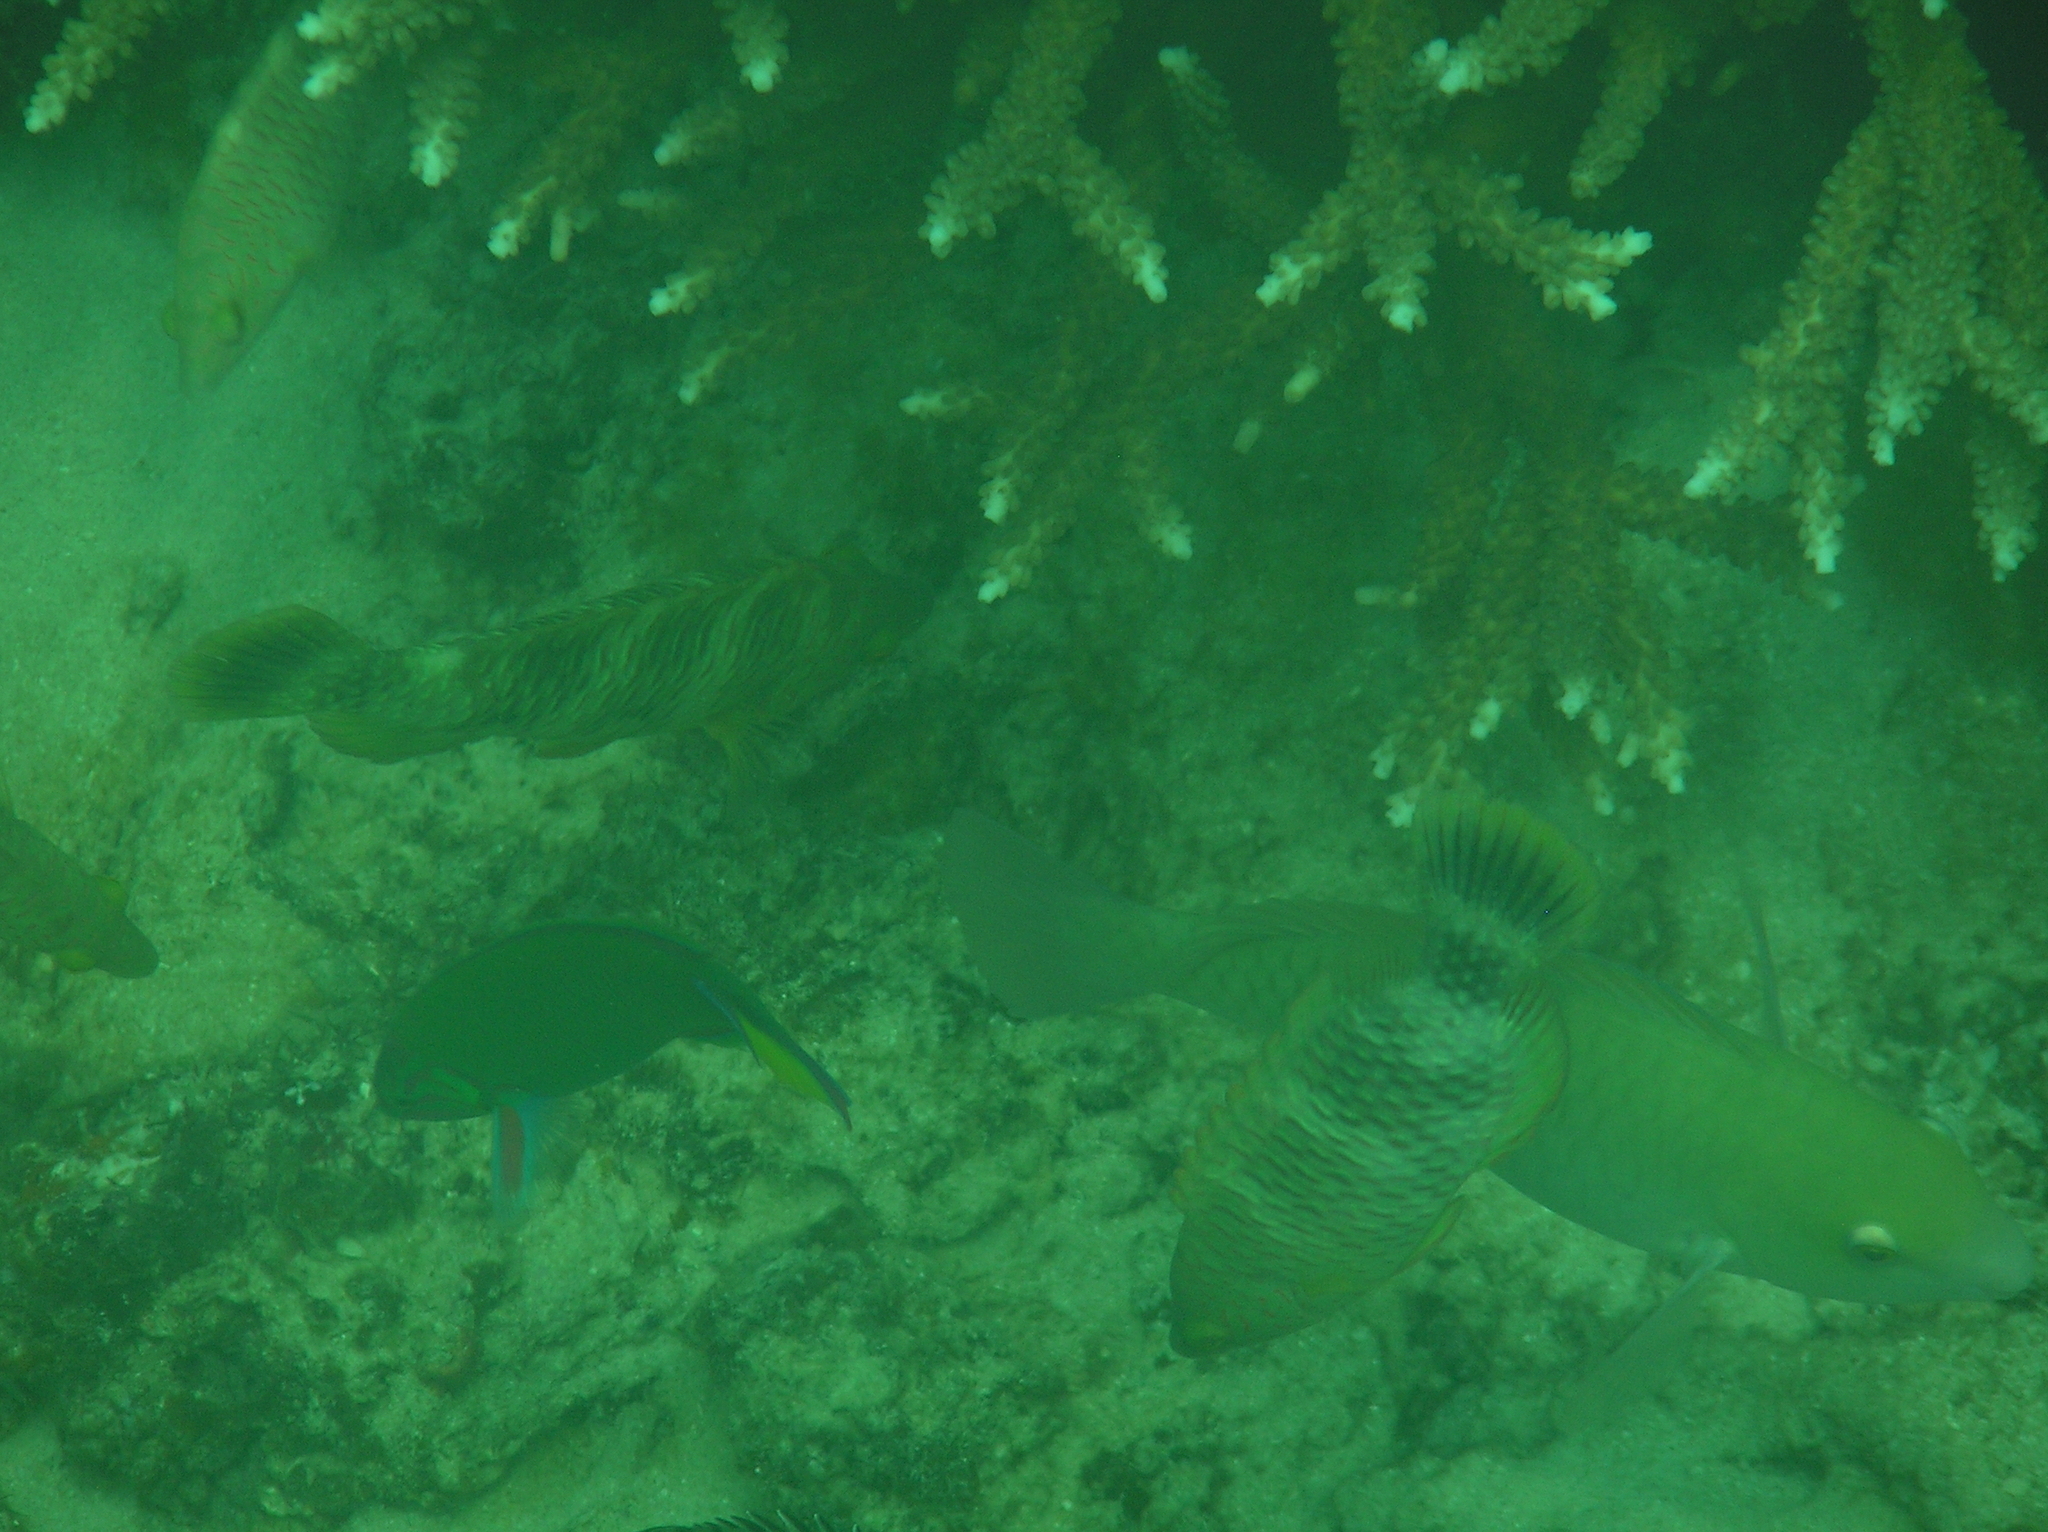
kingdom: Animalia
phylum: Chordata
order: Perciformes
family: Labridae
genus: Thalassoma
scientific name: Thalassoma lunare
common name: Blue wrasse
